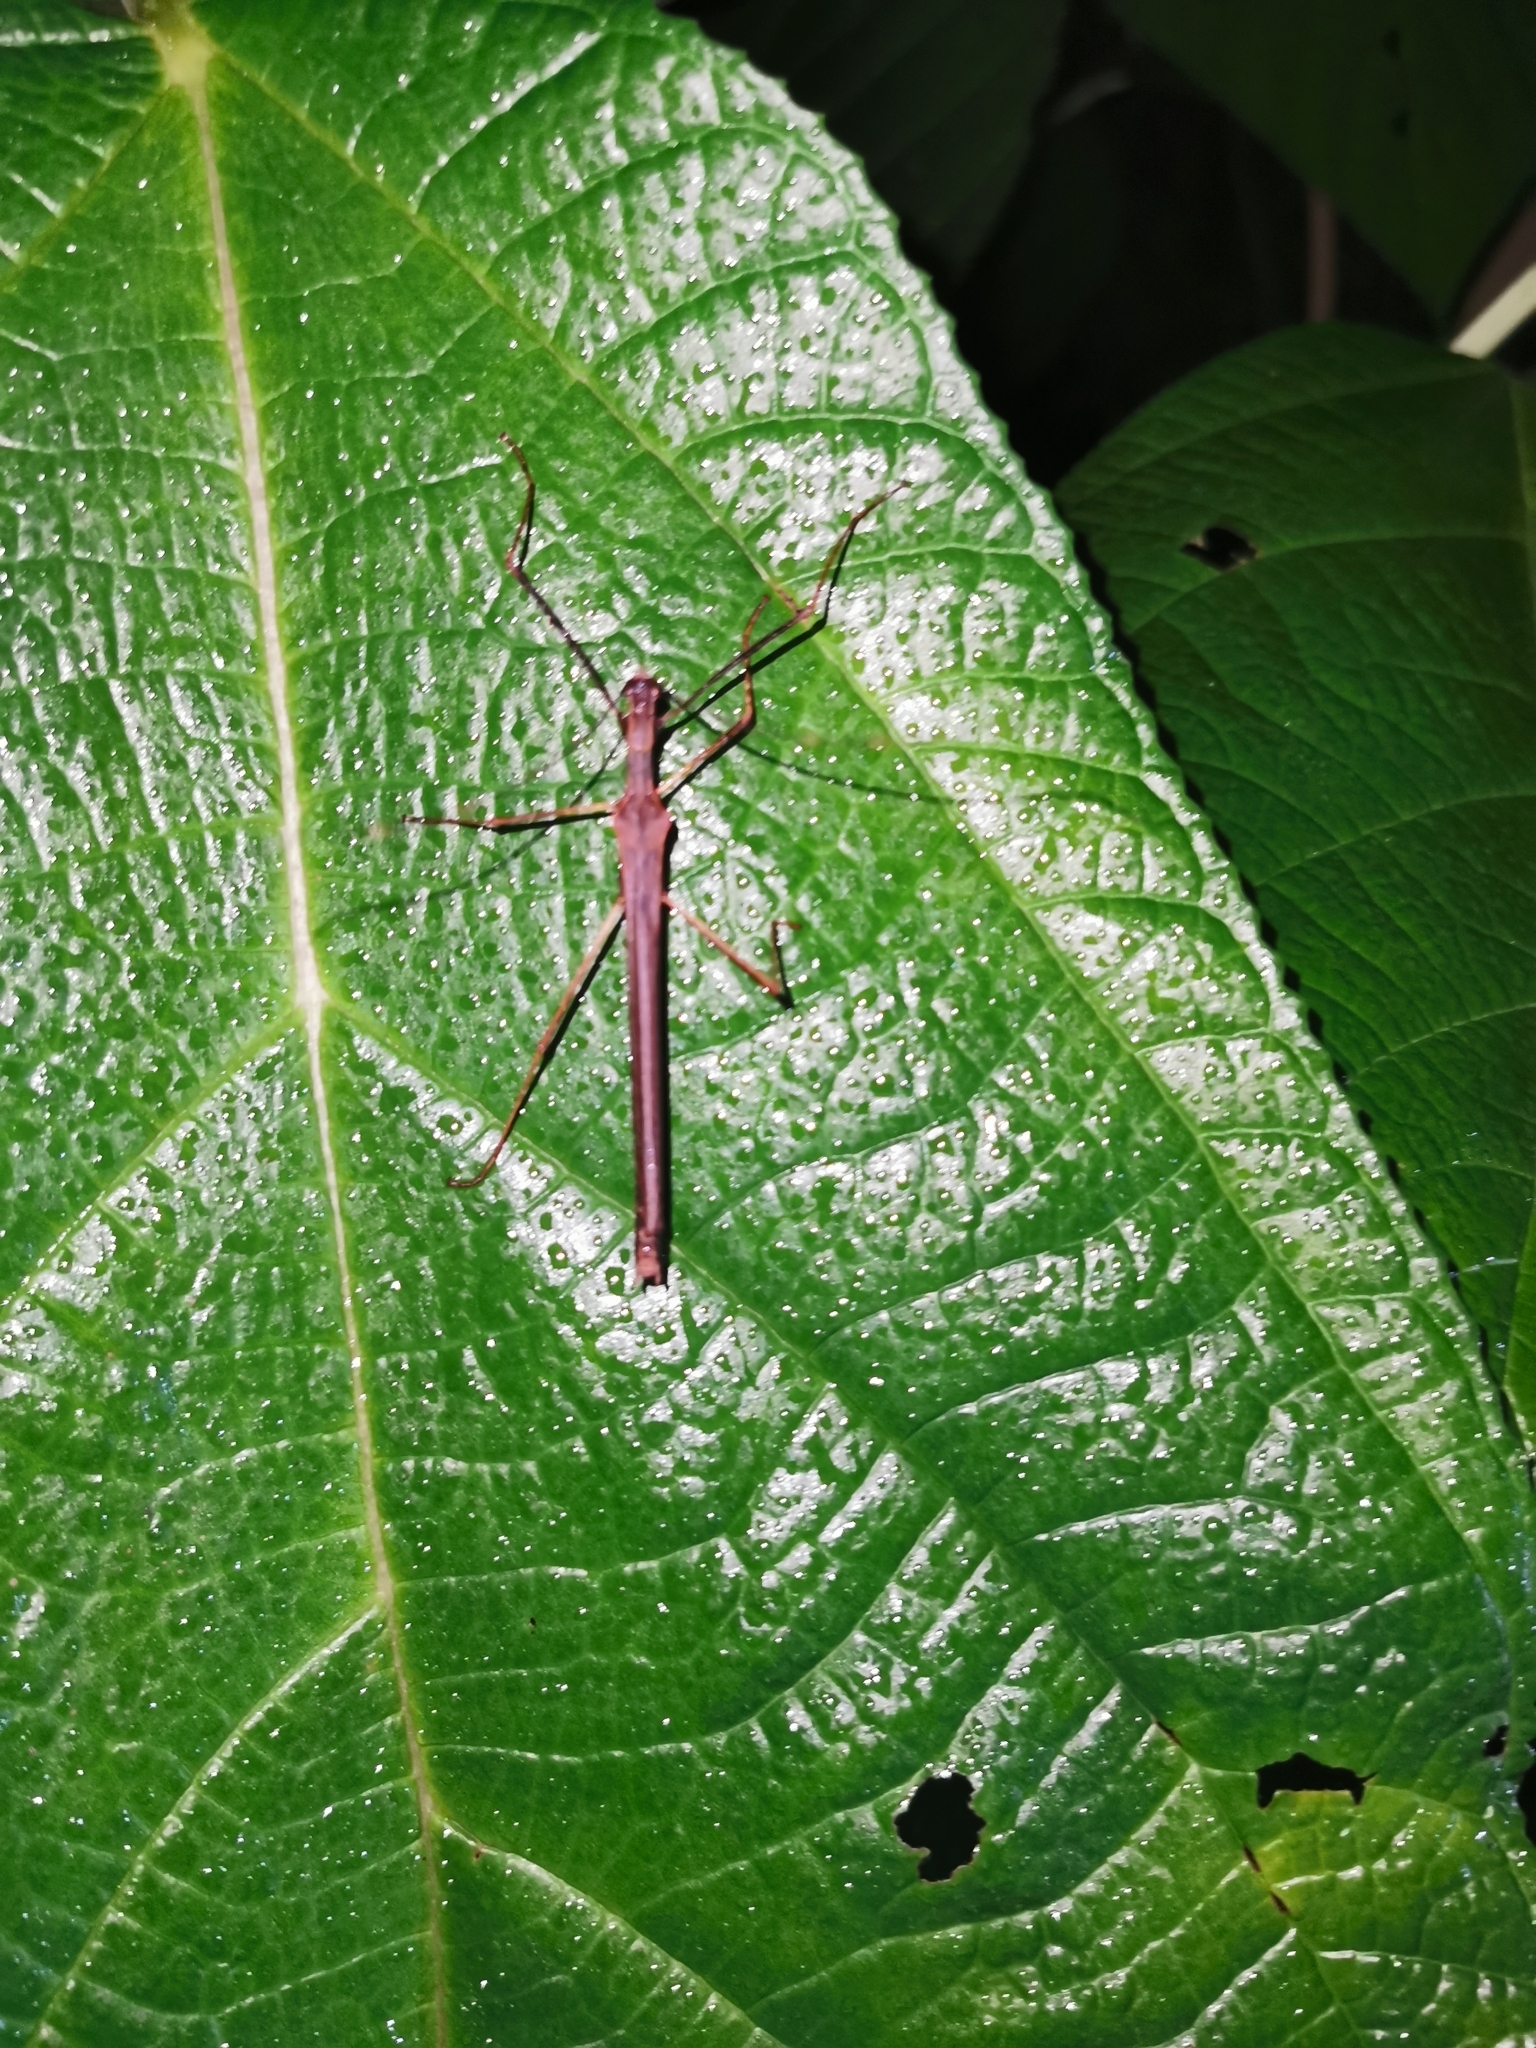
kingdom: Animalia
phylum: Arthropoda
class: Insecta
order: Phasmida
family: Pseudophasmatidae
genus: Pseudophasma
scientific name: Pseudophasma unicolor
